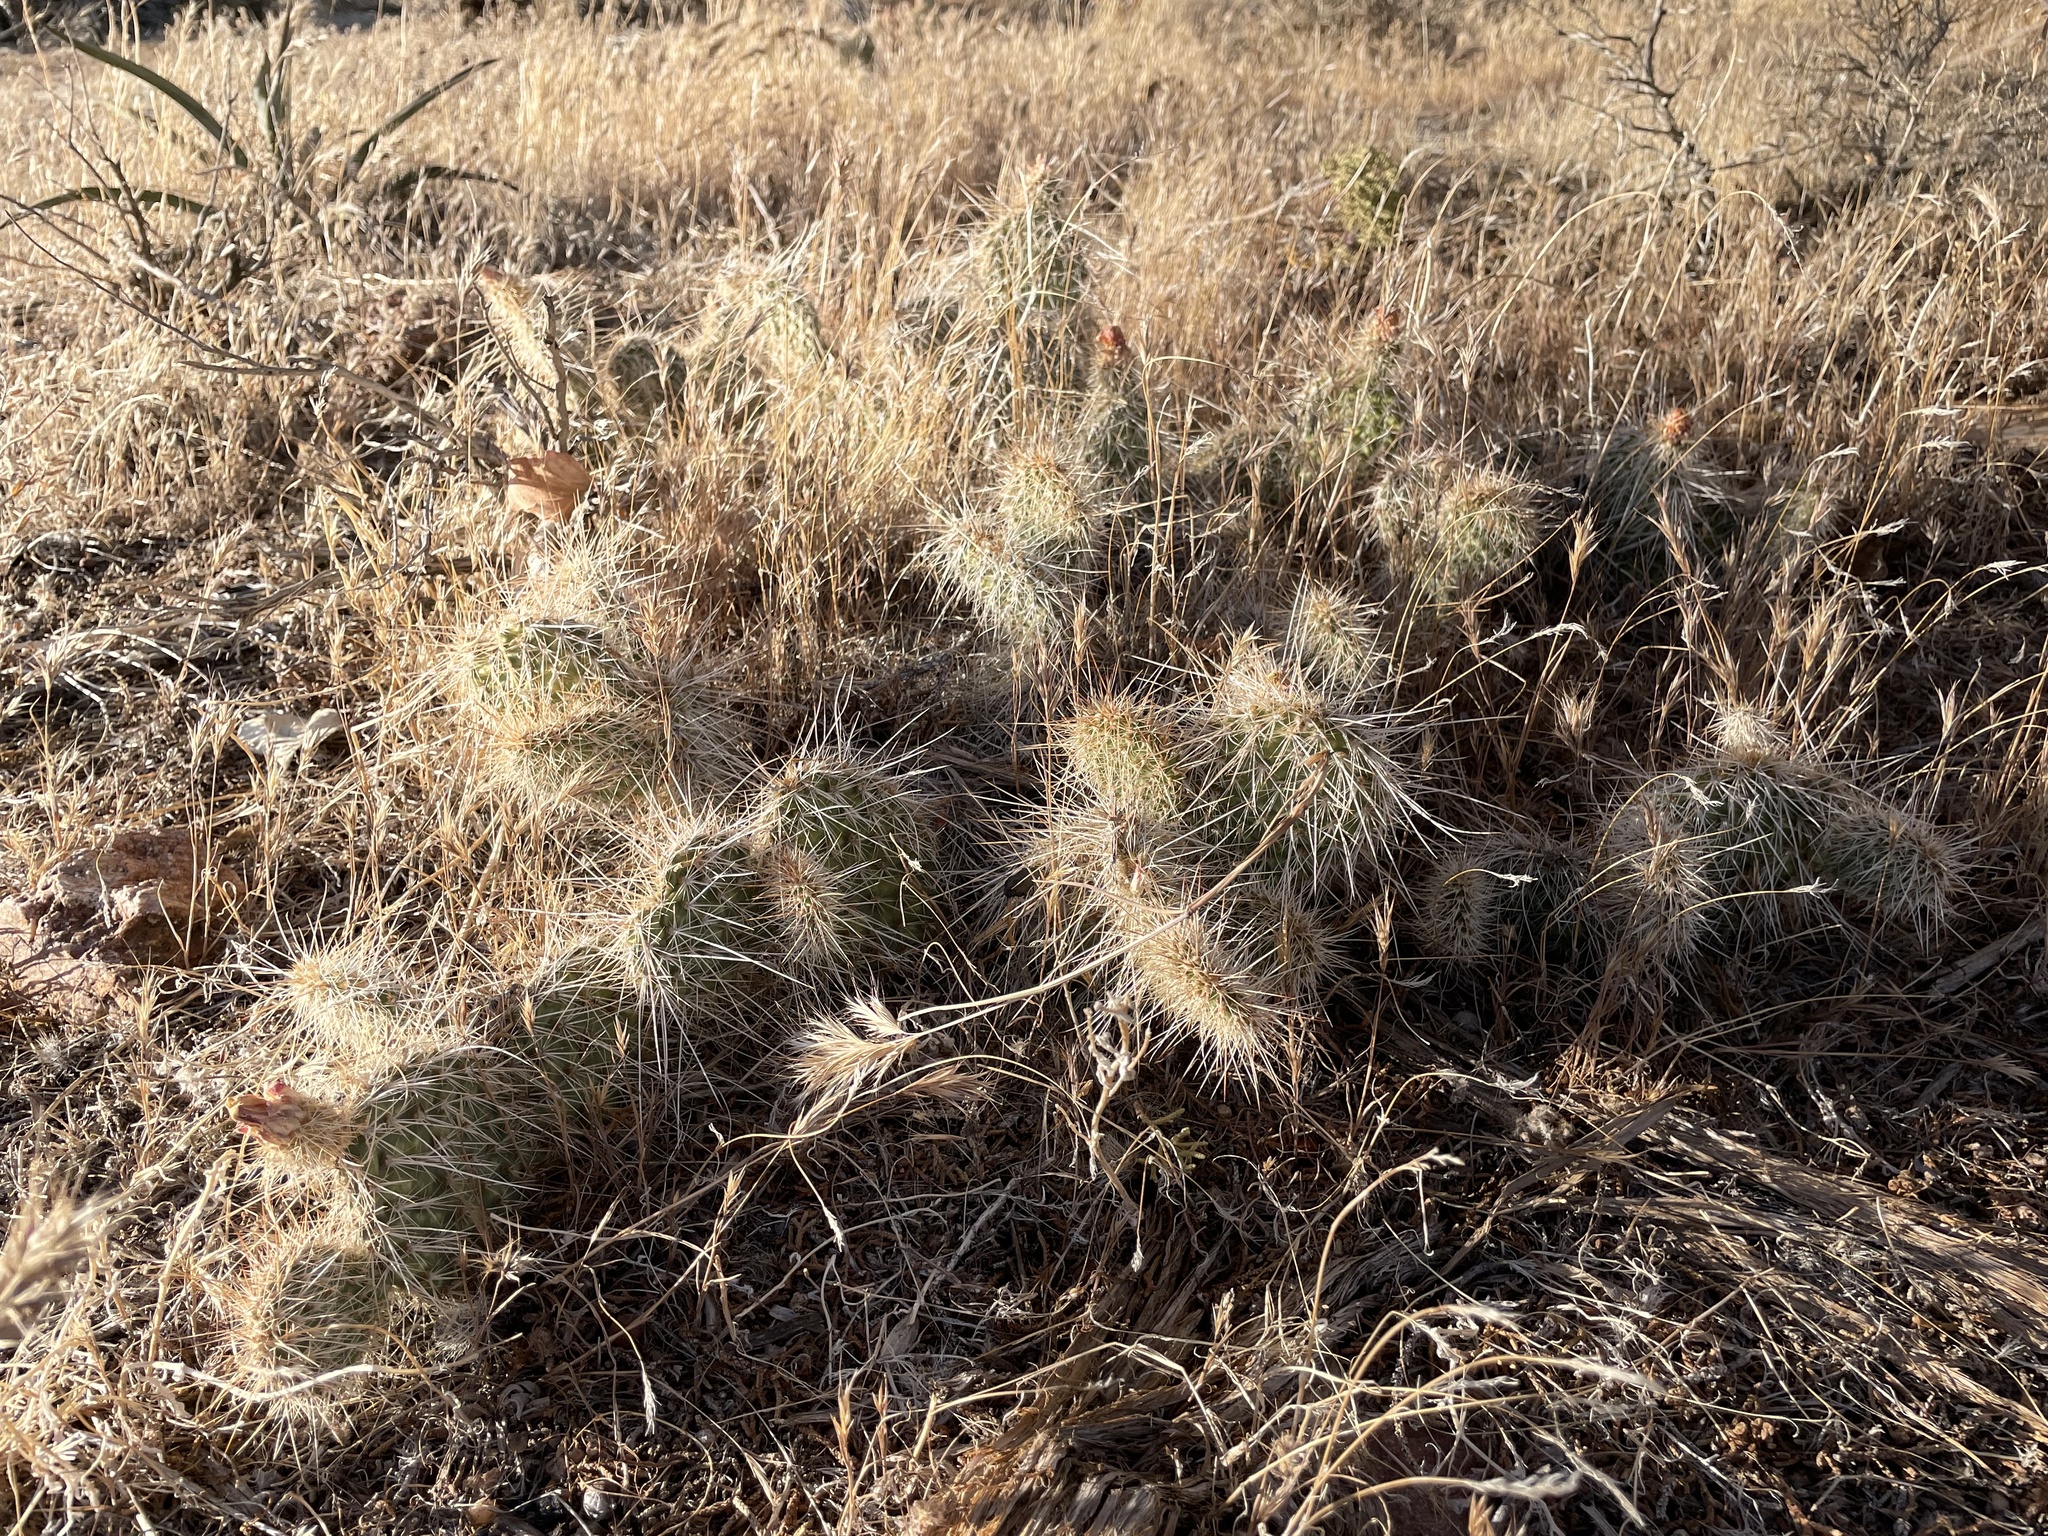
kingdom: Plantae
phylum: Tracheophyta
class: Magnoliopsida
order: Caryophyllales
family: Cactaceae
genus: Opuntia
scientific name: Opuntia polyacantha
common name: Plains prickly-pear
